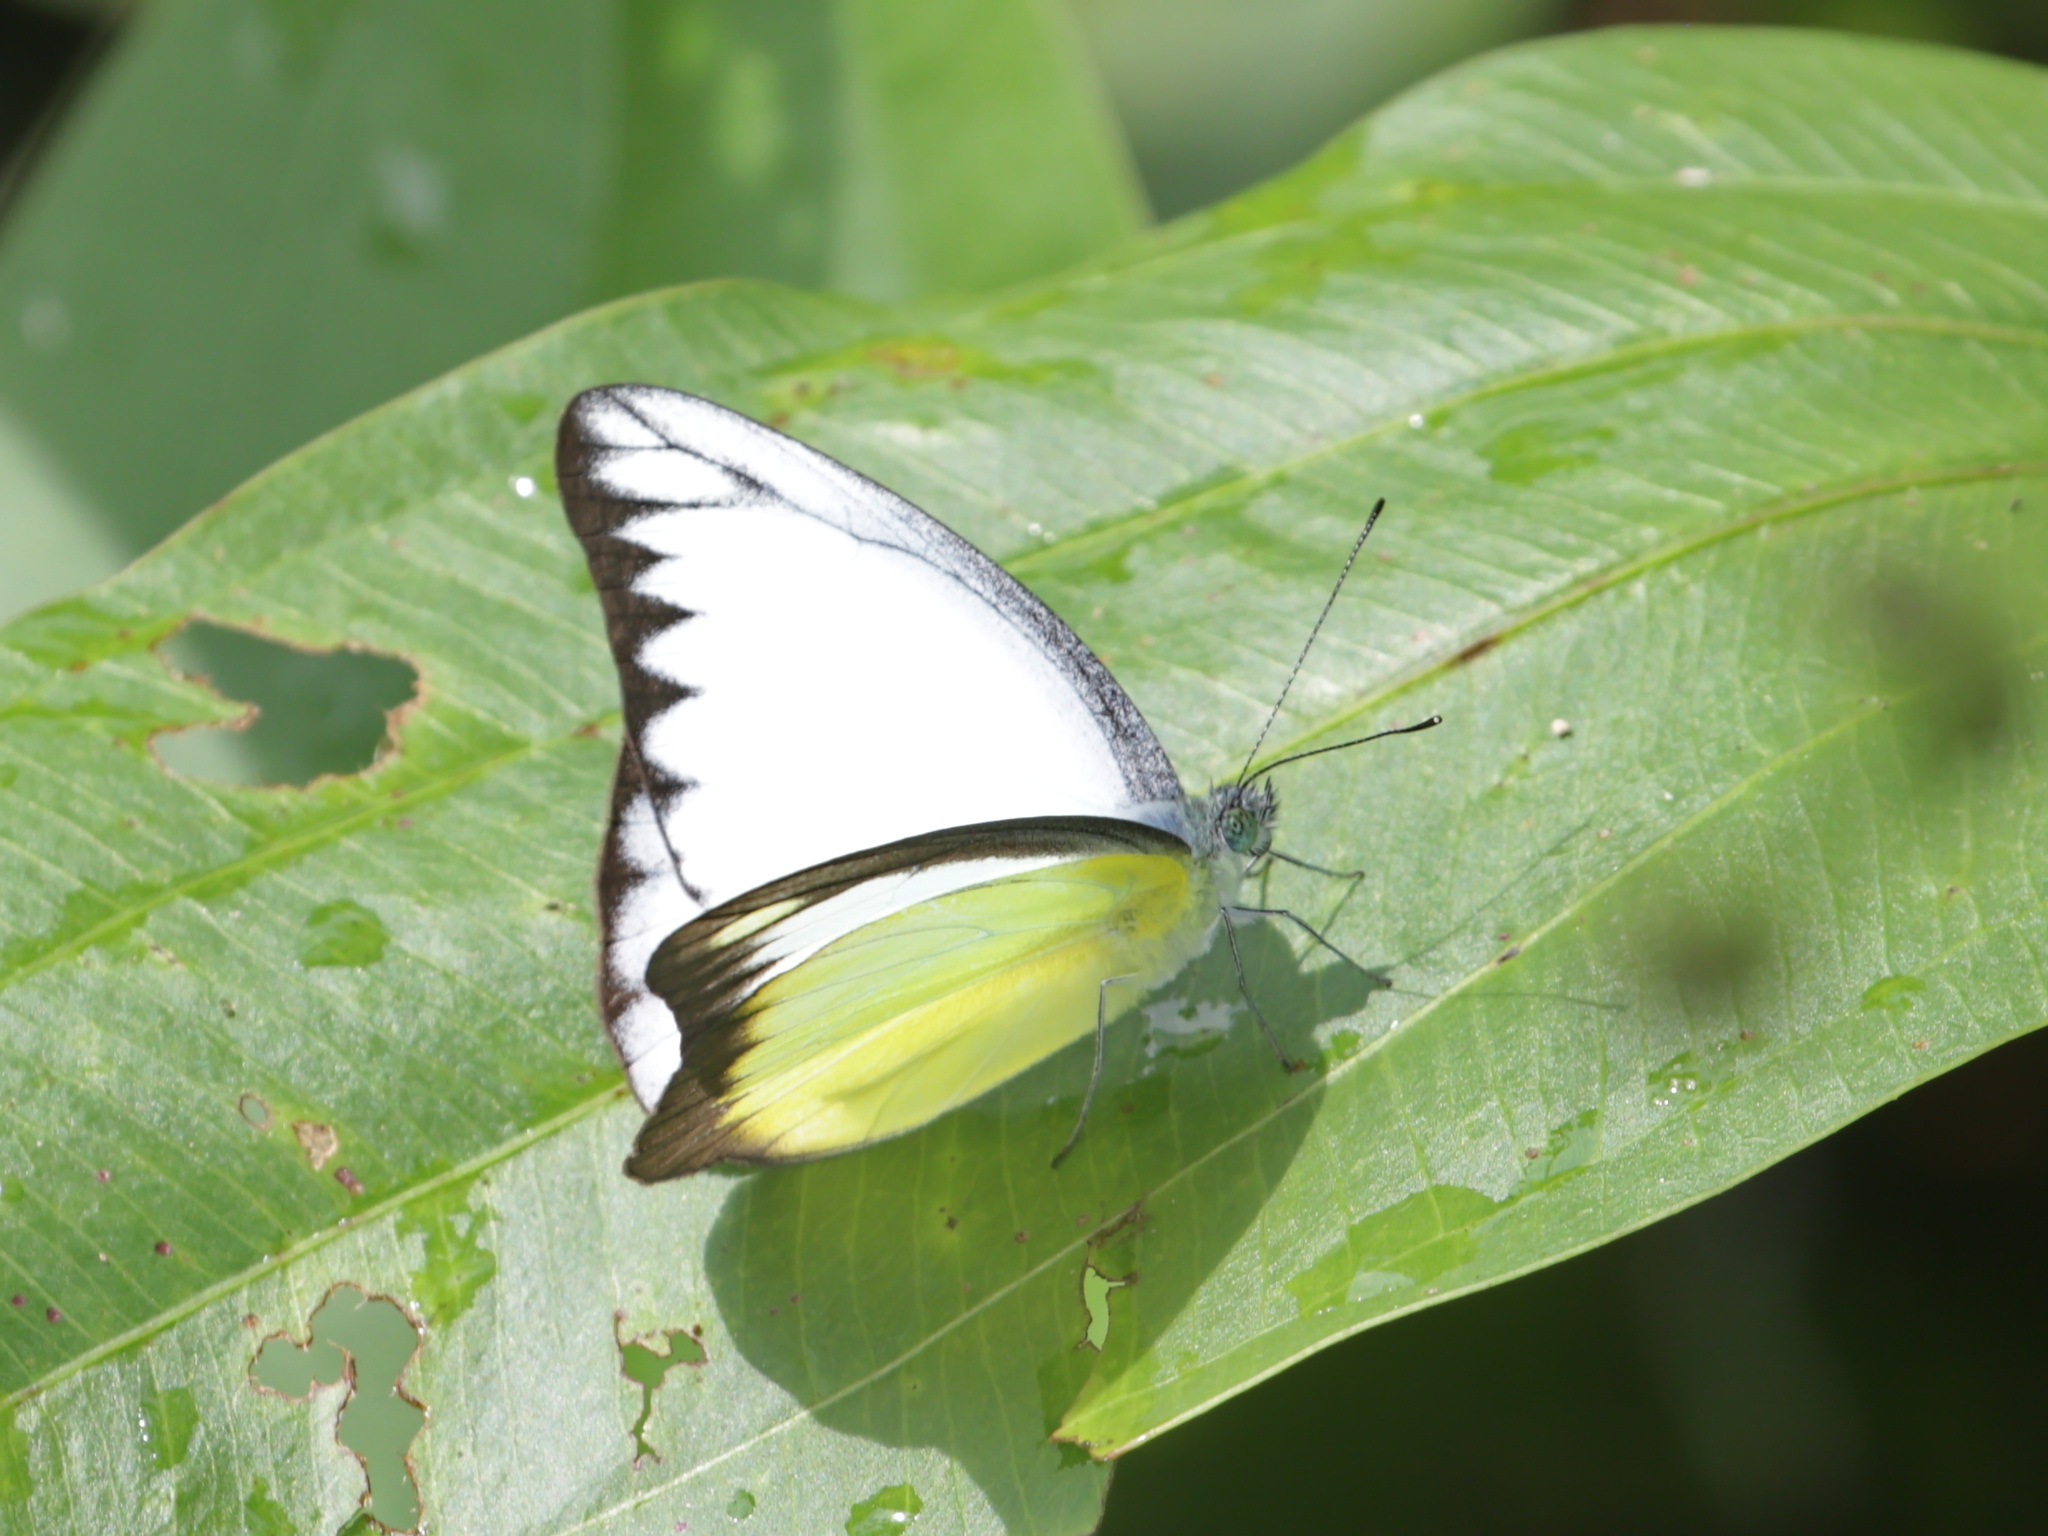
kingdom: Animalia
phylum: Arthropoda
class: Insecta
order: Lepidoptera
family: Pieridae
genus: Appias
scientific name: Appias lyncida
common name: Chocolate albatross
